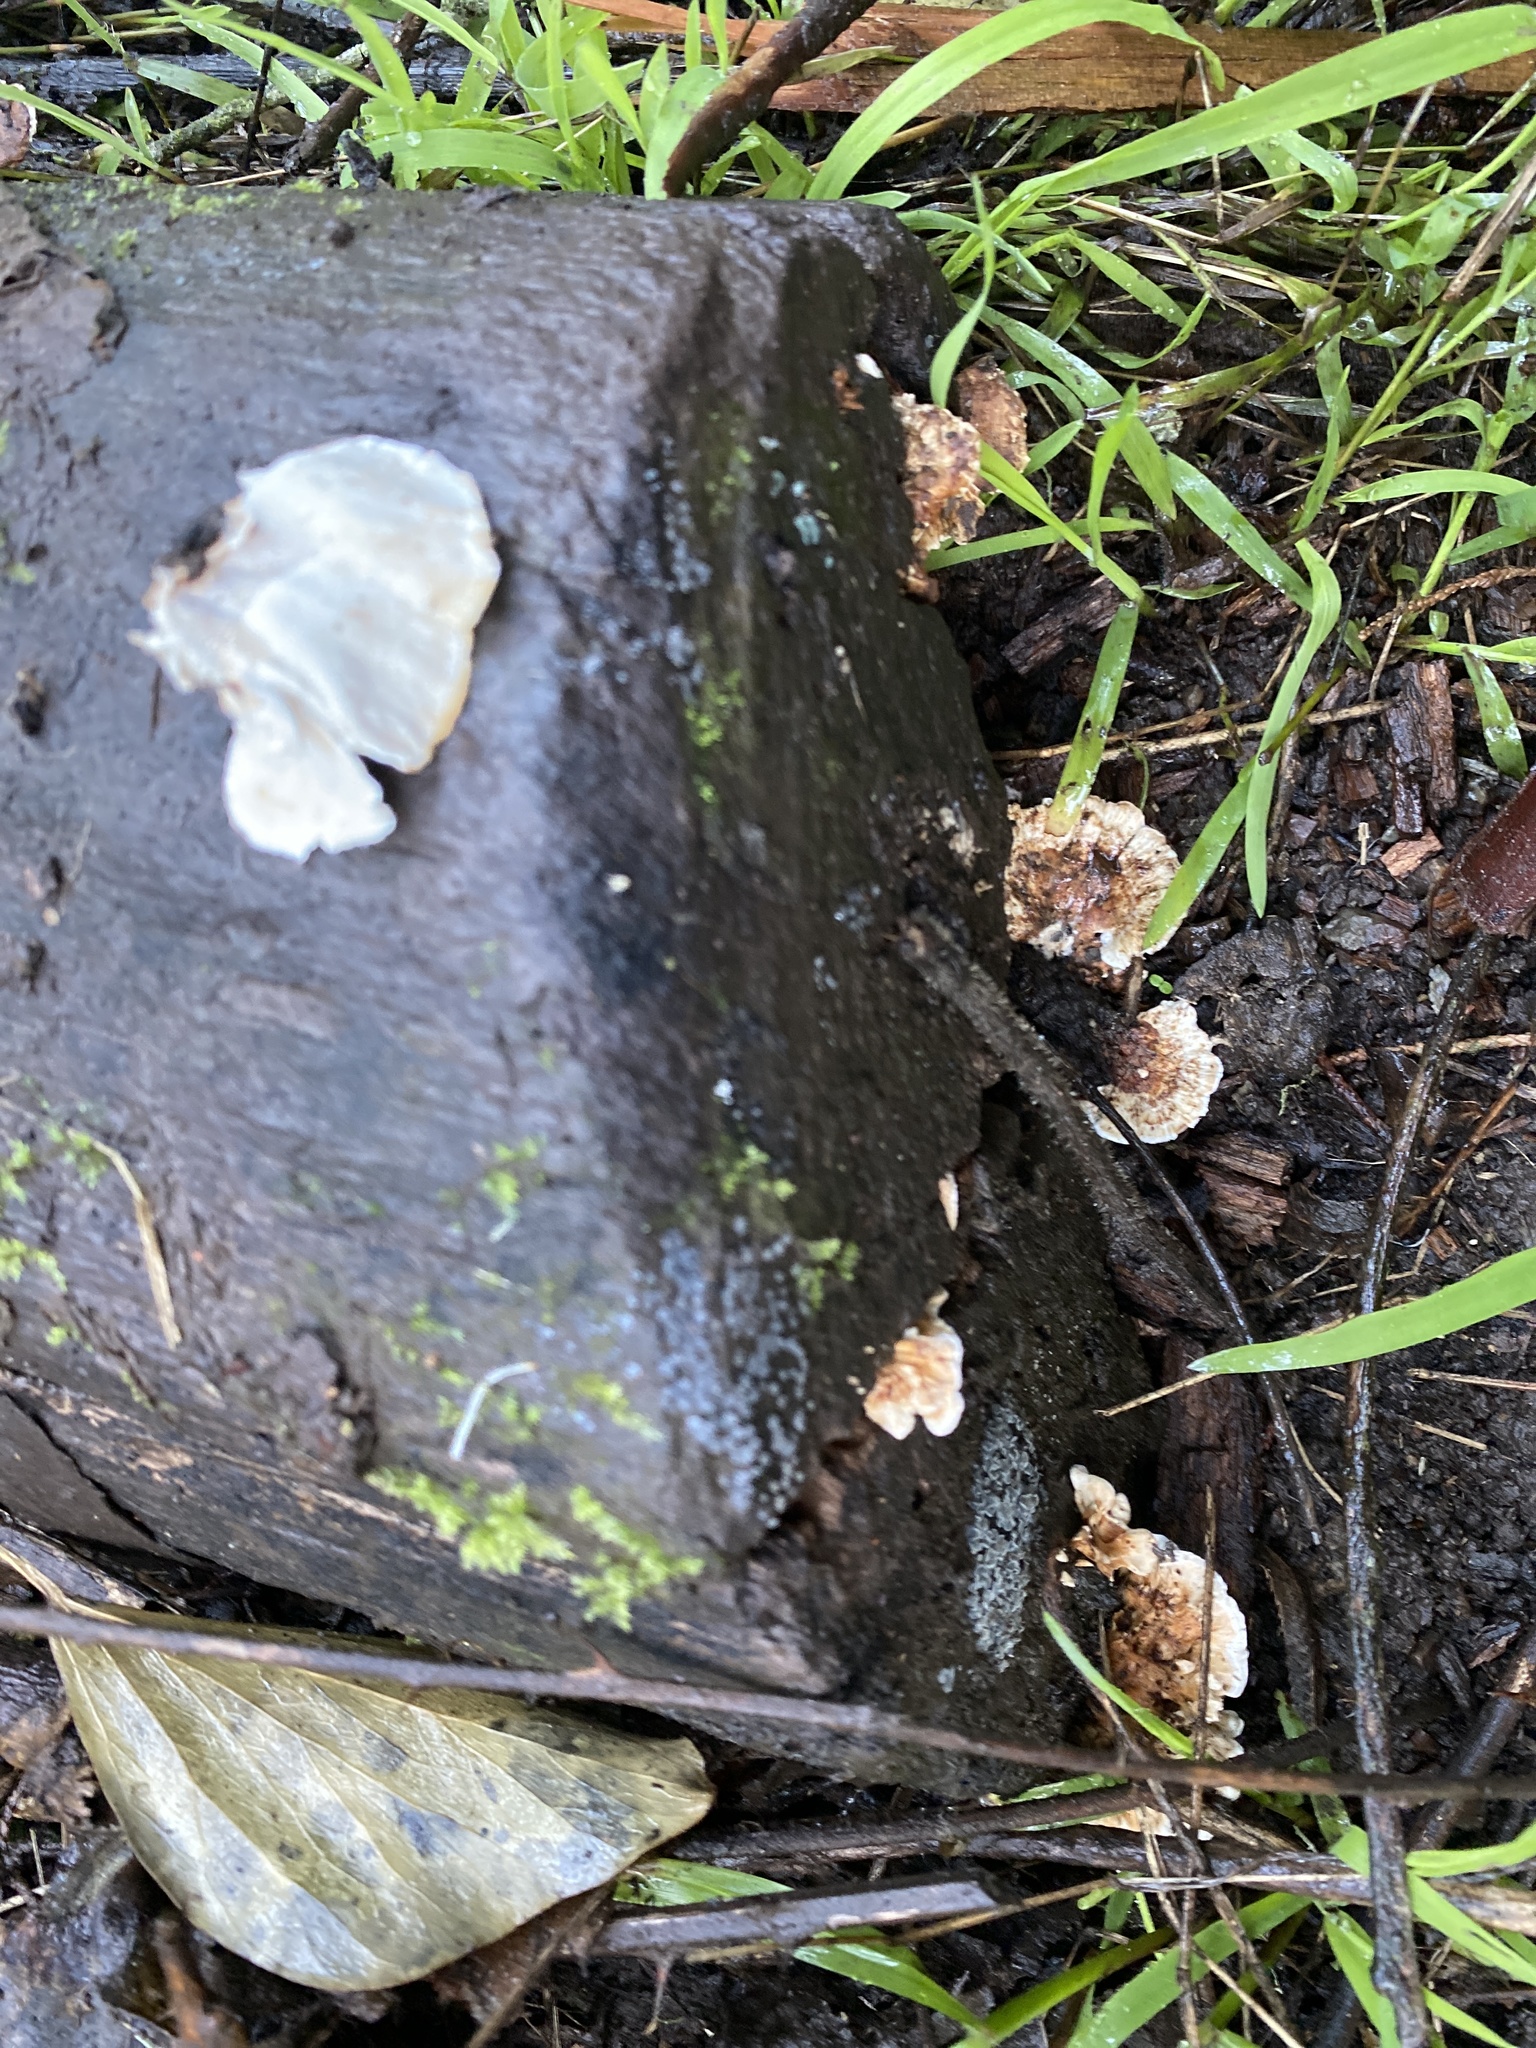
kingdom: Fungi
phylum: Basidiomycota
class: Agaricomycetes
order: Polyporales
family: Polyporaceae
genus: Trametes
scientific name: Trametes versicolor
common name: Turkeytail
